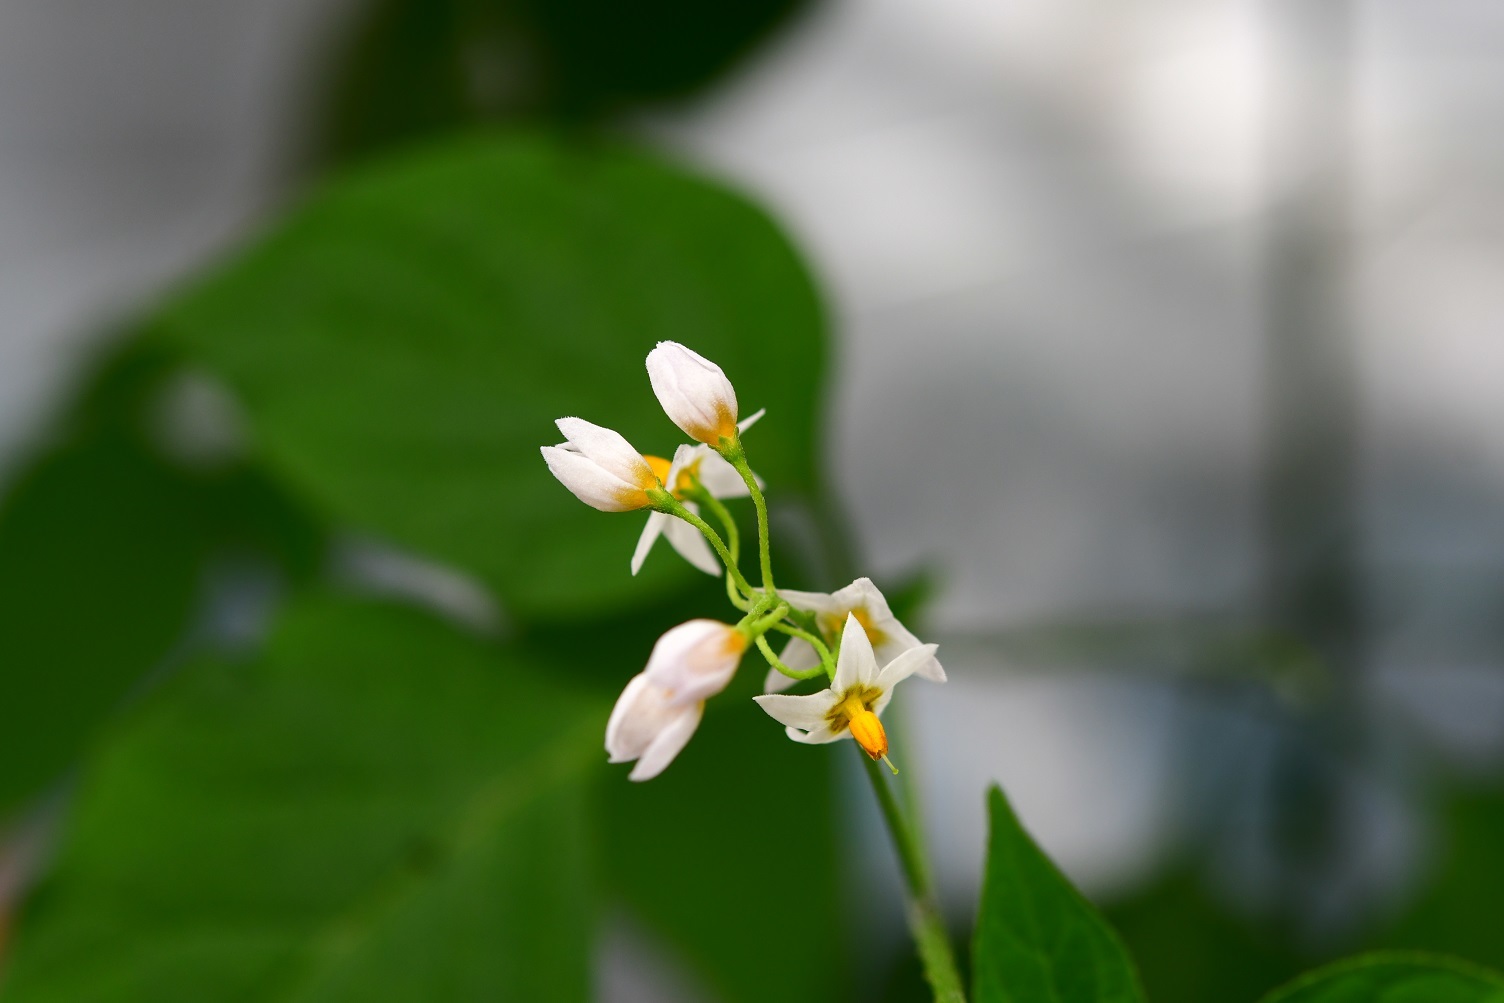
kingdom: Plantae
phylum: Tracheophyta
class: Magnoliopsida
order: Solanales
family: Solanaceae
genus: Solanum
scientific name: Solanum americanum
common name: American black nightshade
